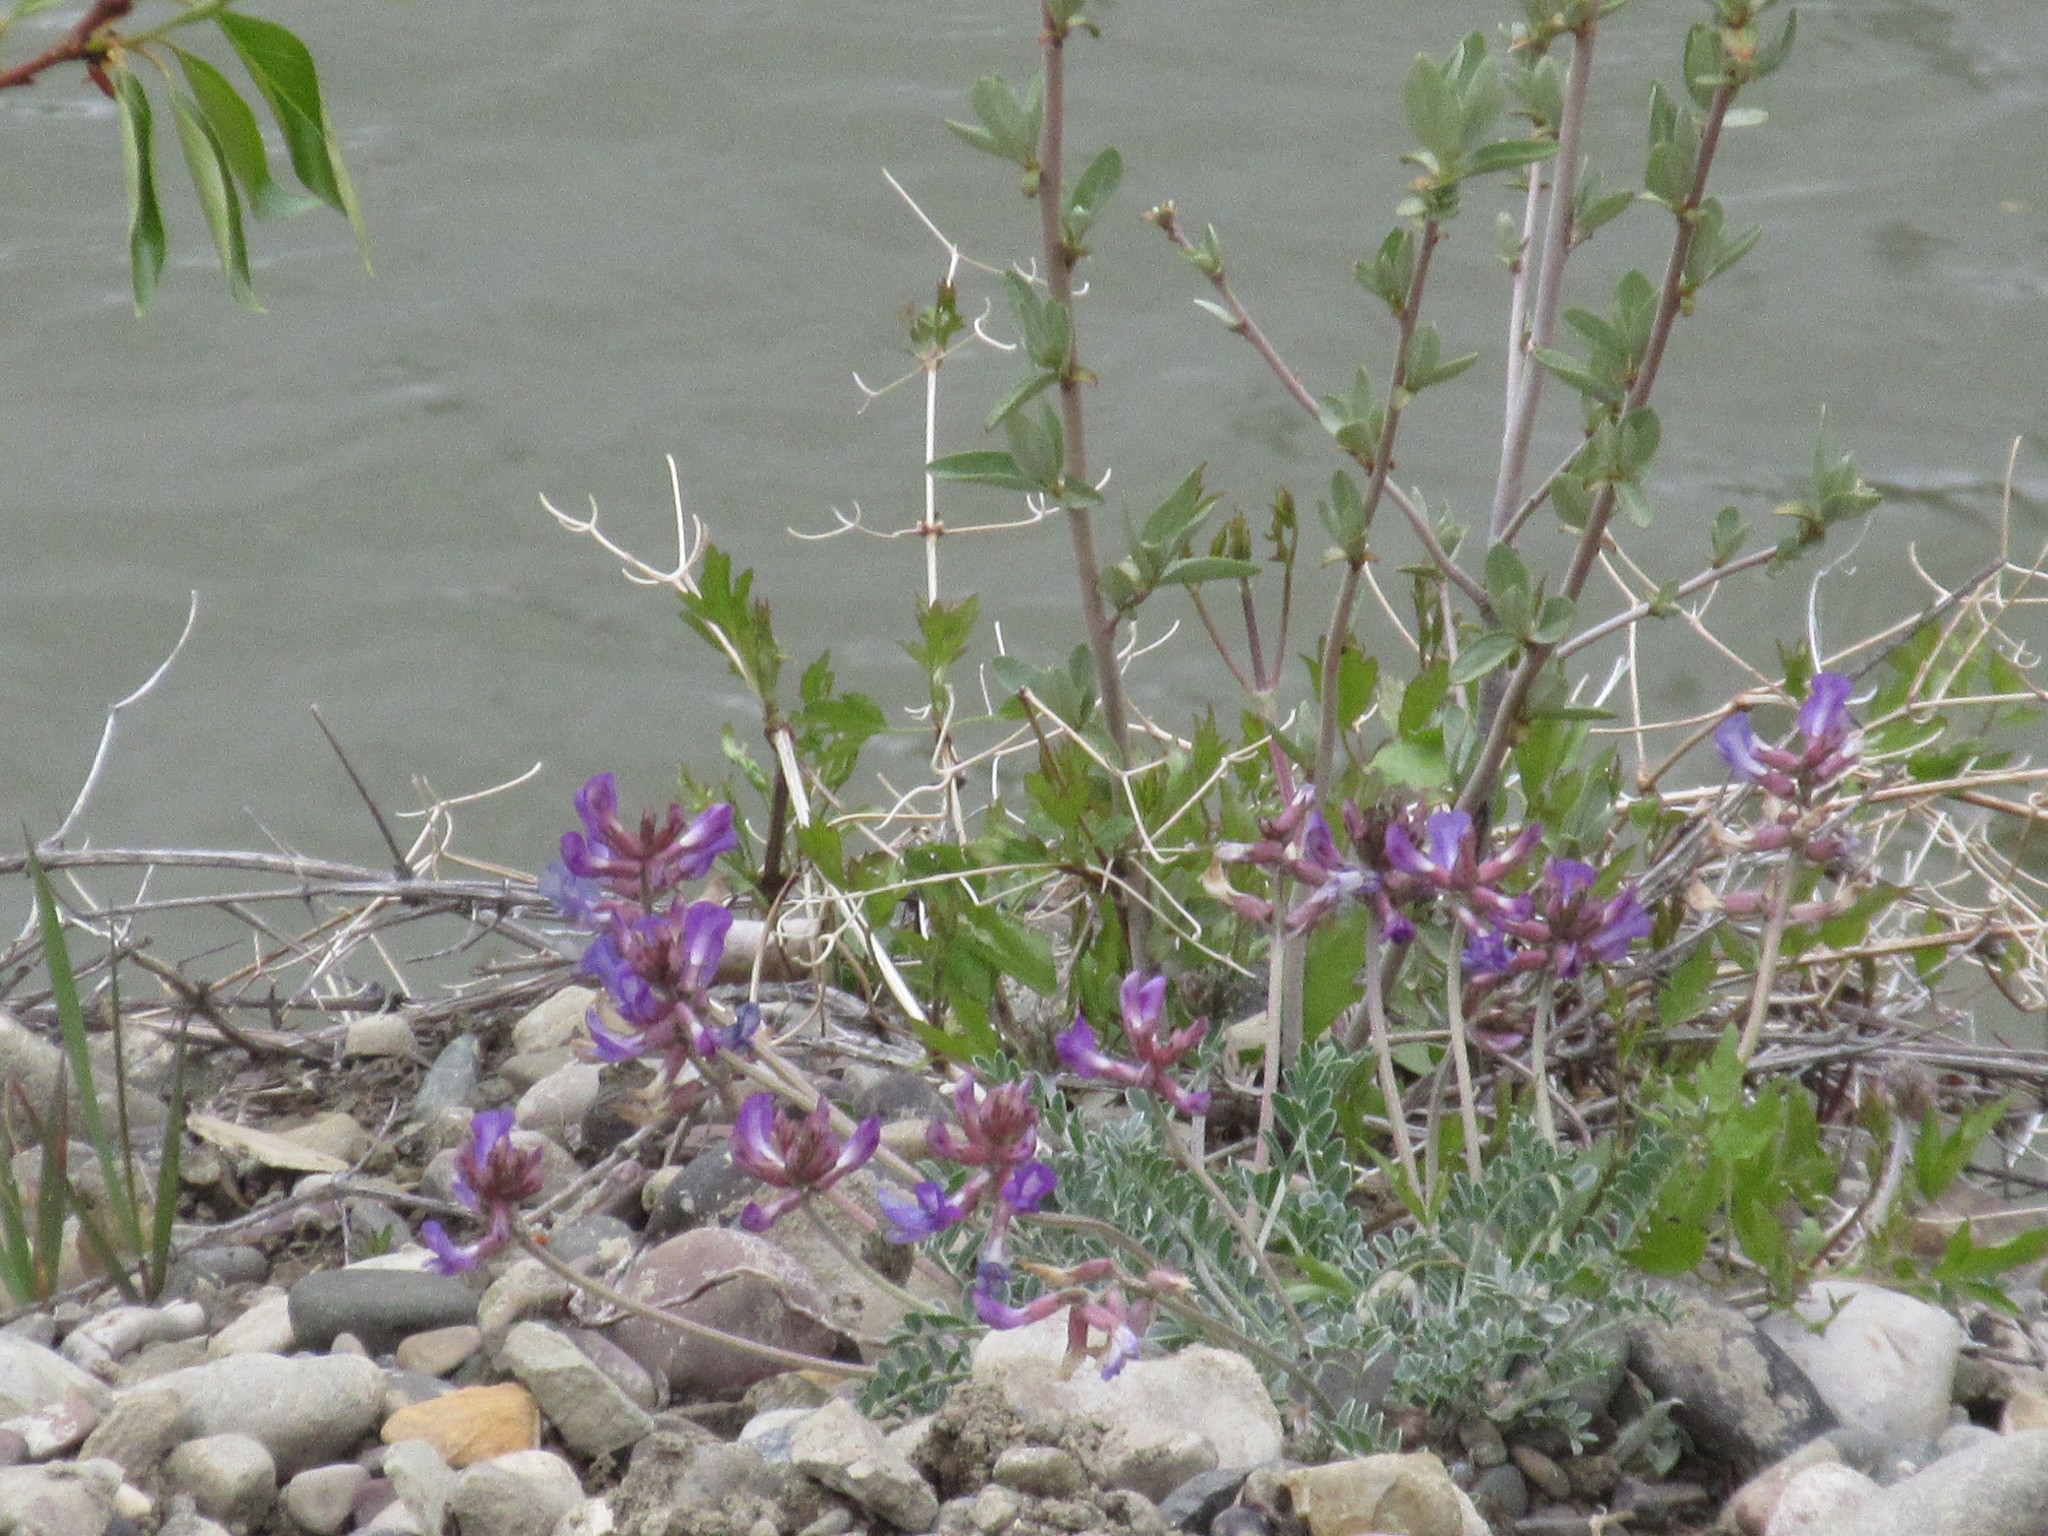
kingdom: Plantae
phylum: Tracheophyta
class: Magnoliopsida
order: Fabales
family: Fabaceae
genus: Astragalus
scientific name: Astragalus missouriensis
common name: Missouri milk-vetch
